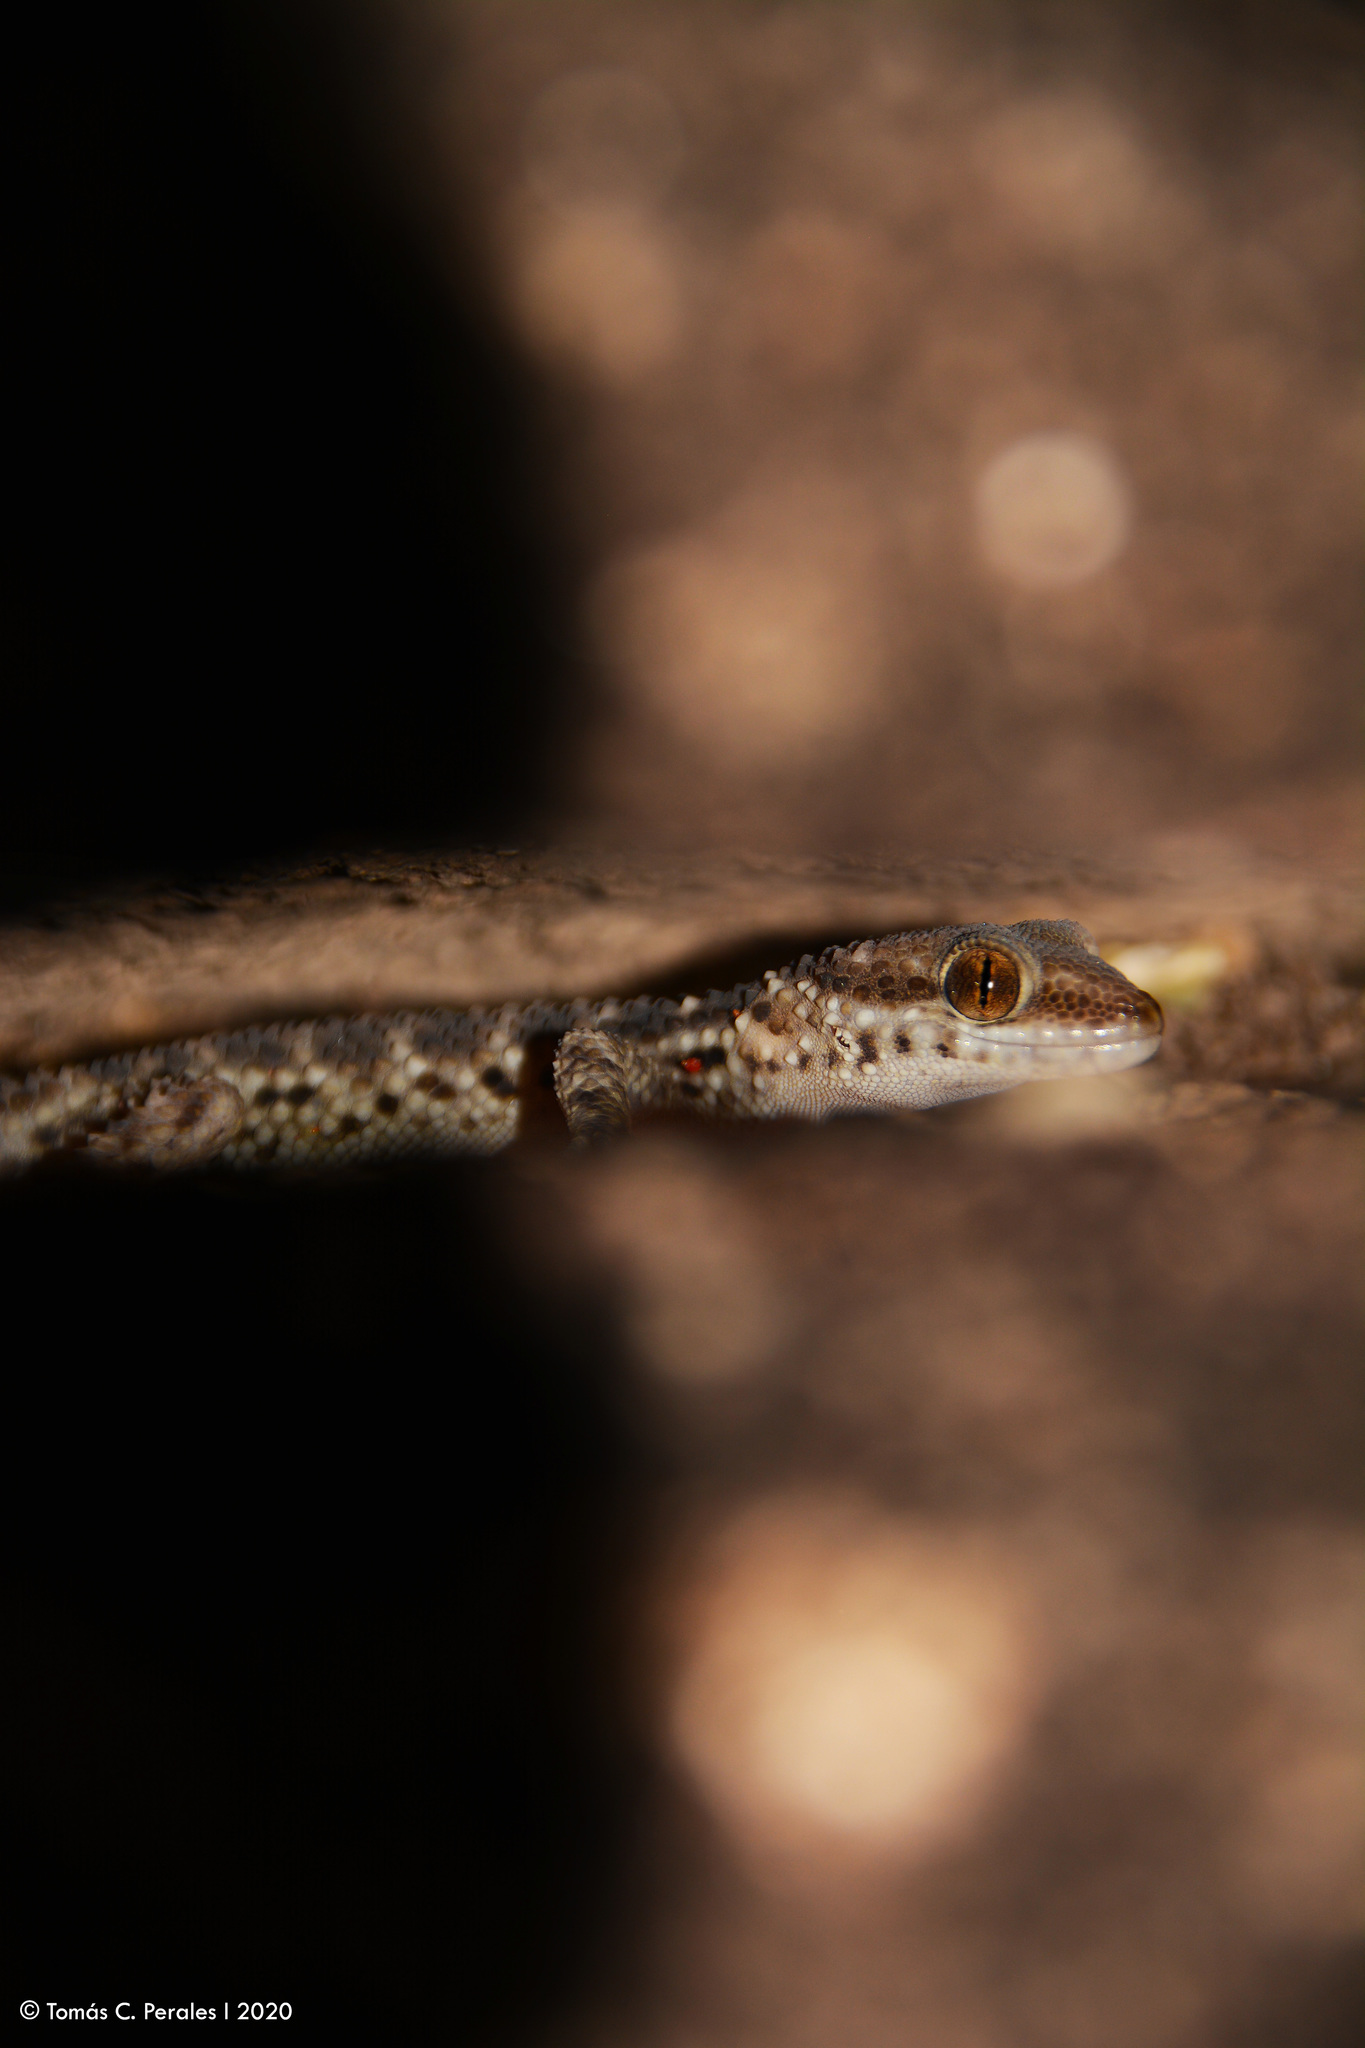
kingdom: Animalia
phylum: Chordata
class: Squamata
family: Phyllodactylidae
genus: Homonota
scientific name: Homonota horrida
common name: South american marked gecko
